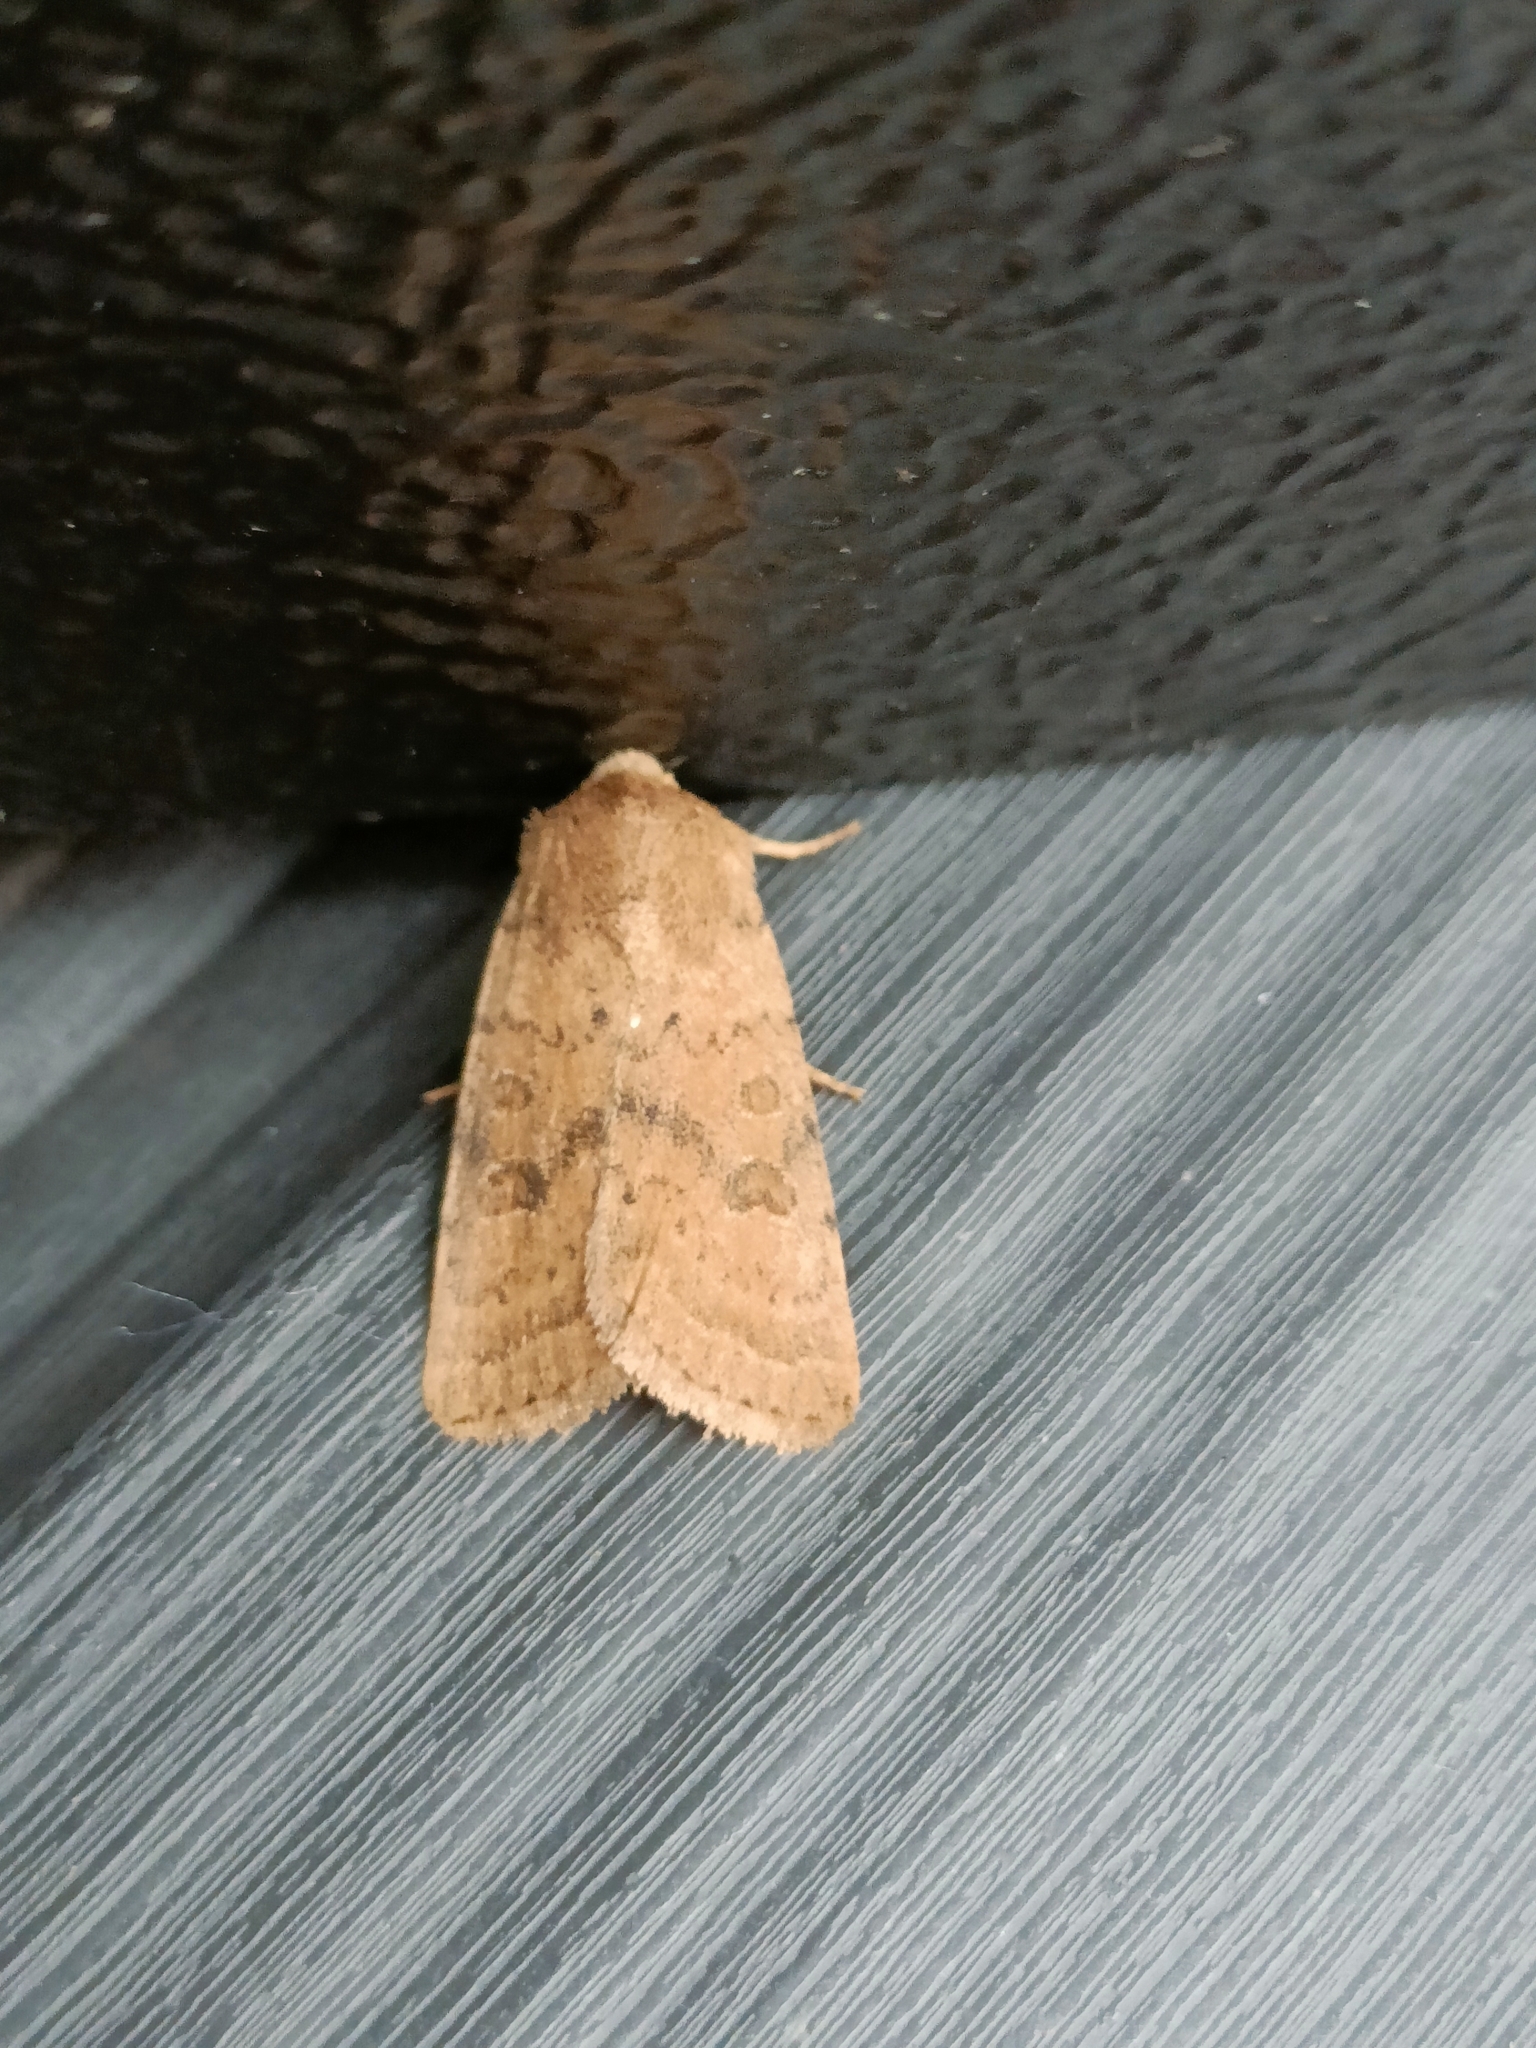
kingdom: Animalia
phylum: Arthropoda
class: Insecta
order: Lepidoptera
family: Noctuidae
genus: Hoplodrina
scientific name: Hoplodrina octogenaria
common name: Uncertain
